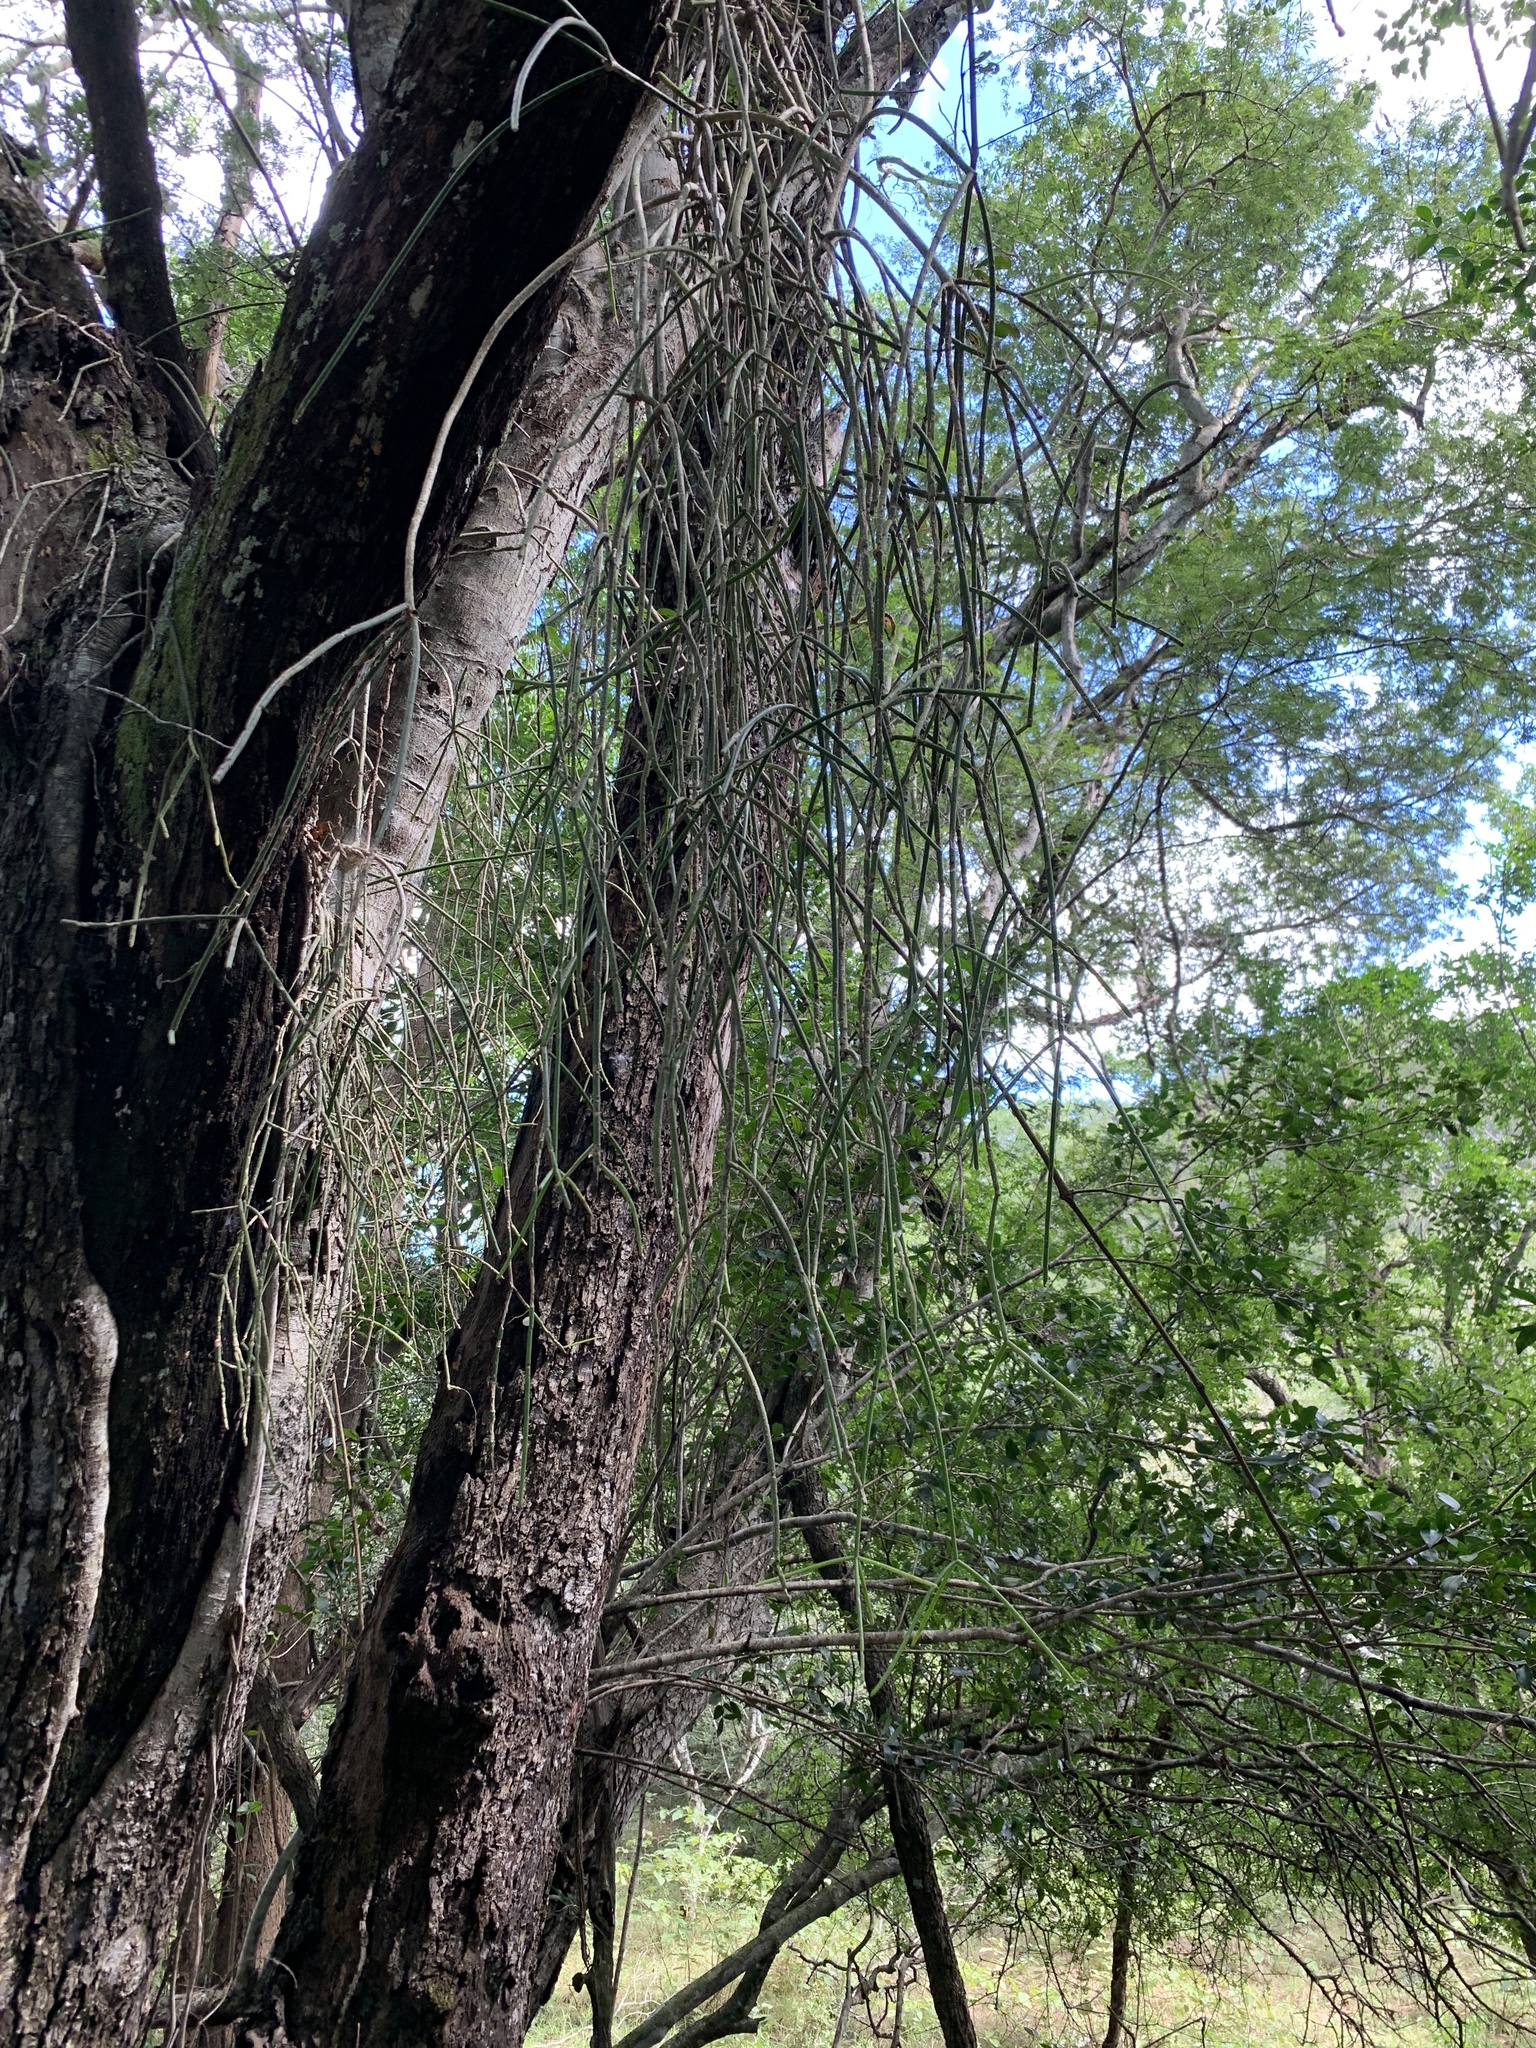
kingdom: Plantae
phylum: Tracheophyta
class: Magnoliopsida
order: Caryophyllales
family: Cactaceae
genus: Rhipsalis
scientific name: Rhipsalis baccifera
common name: Mistletoe cactus
